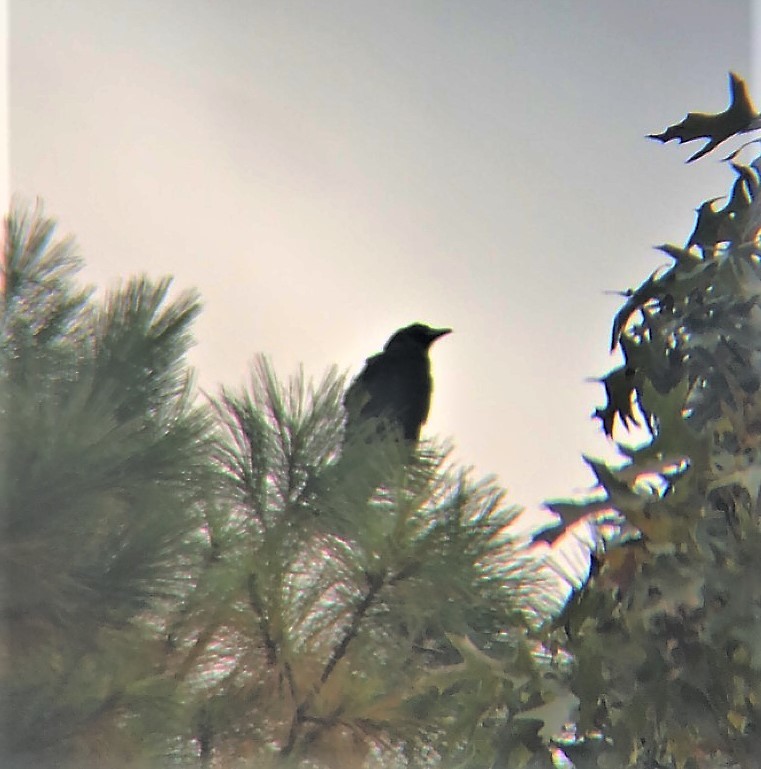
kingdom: Animalia
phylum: Chordata
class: Aves
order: Passeriformes
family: Corvidae
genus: Corvus
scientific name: Corvus
